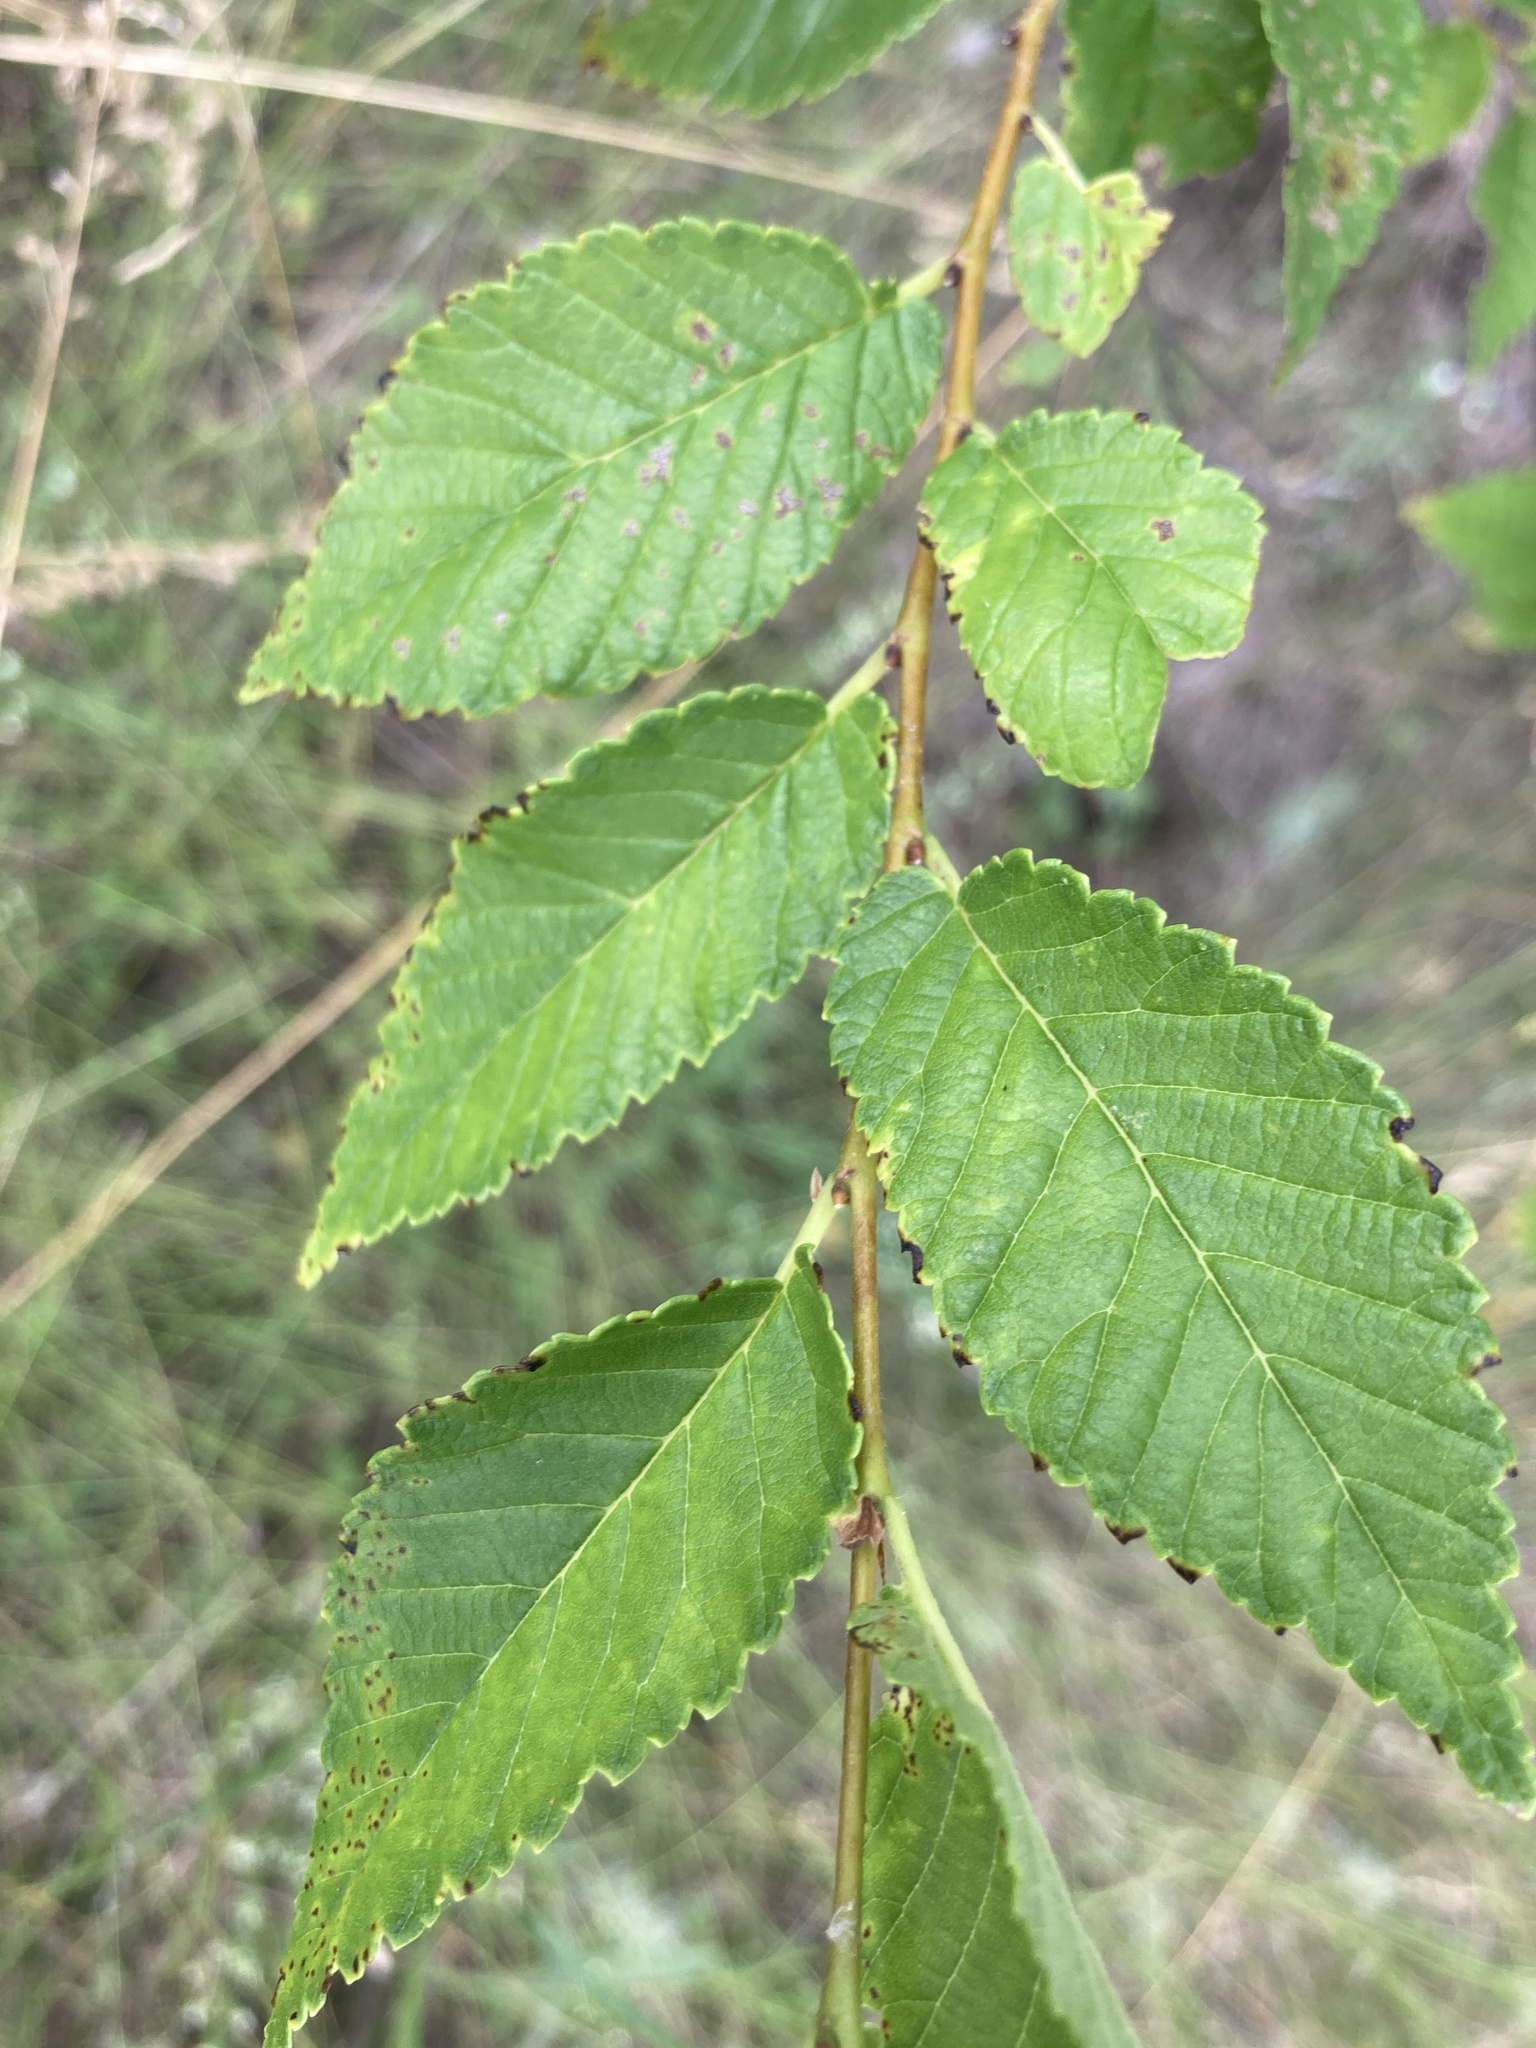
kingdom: Plantae
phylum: Tracheophyta
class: Magnoliopsida
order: Rosales
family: Ulmaceae
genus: Ulmus
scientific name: Ulmus pumila
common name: Siberian elm
